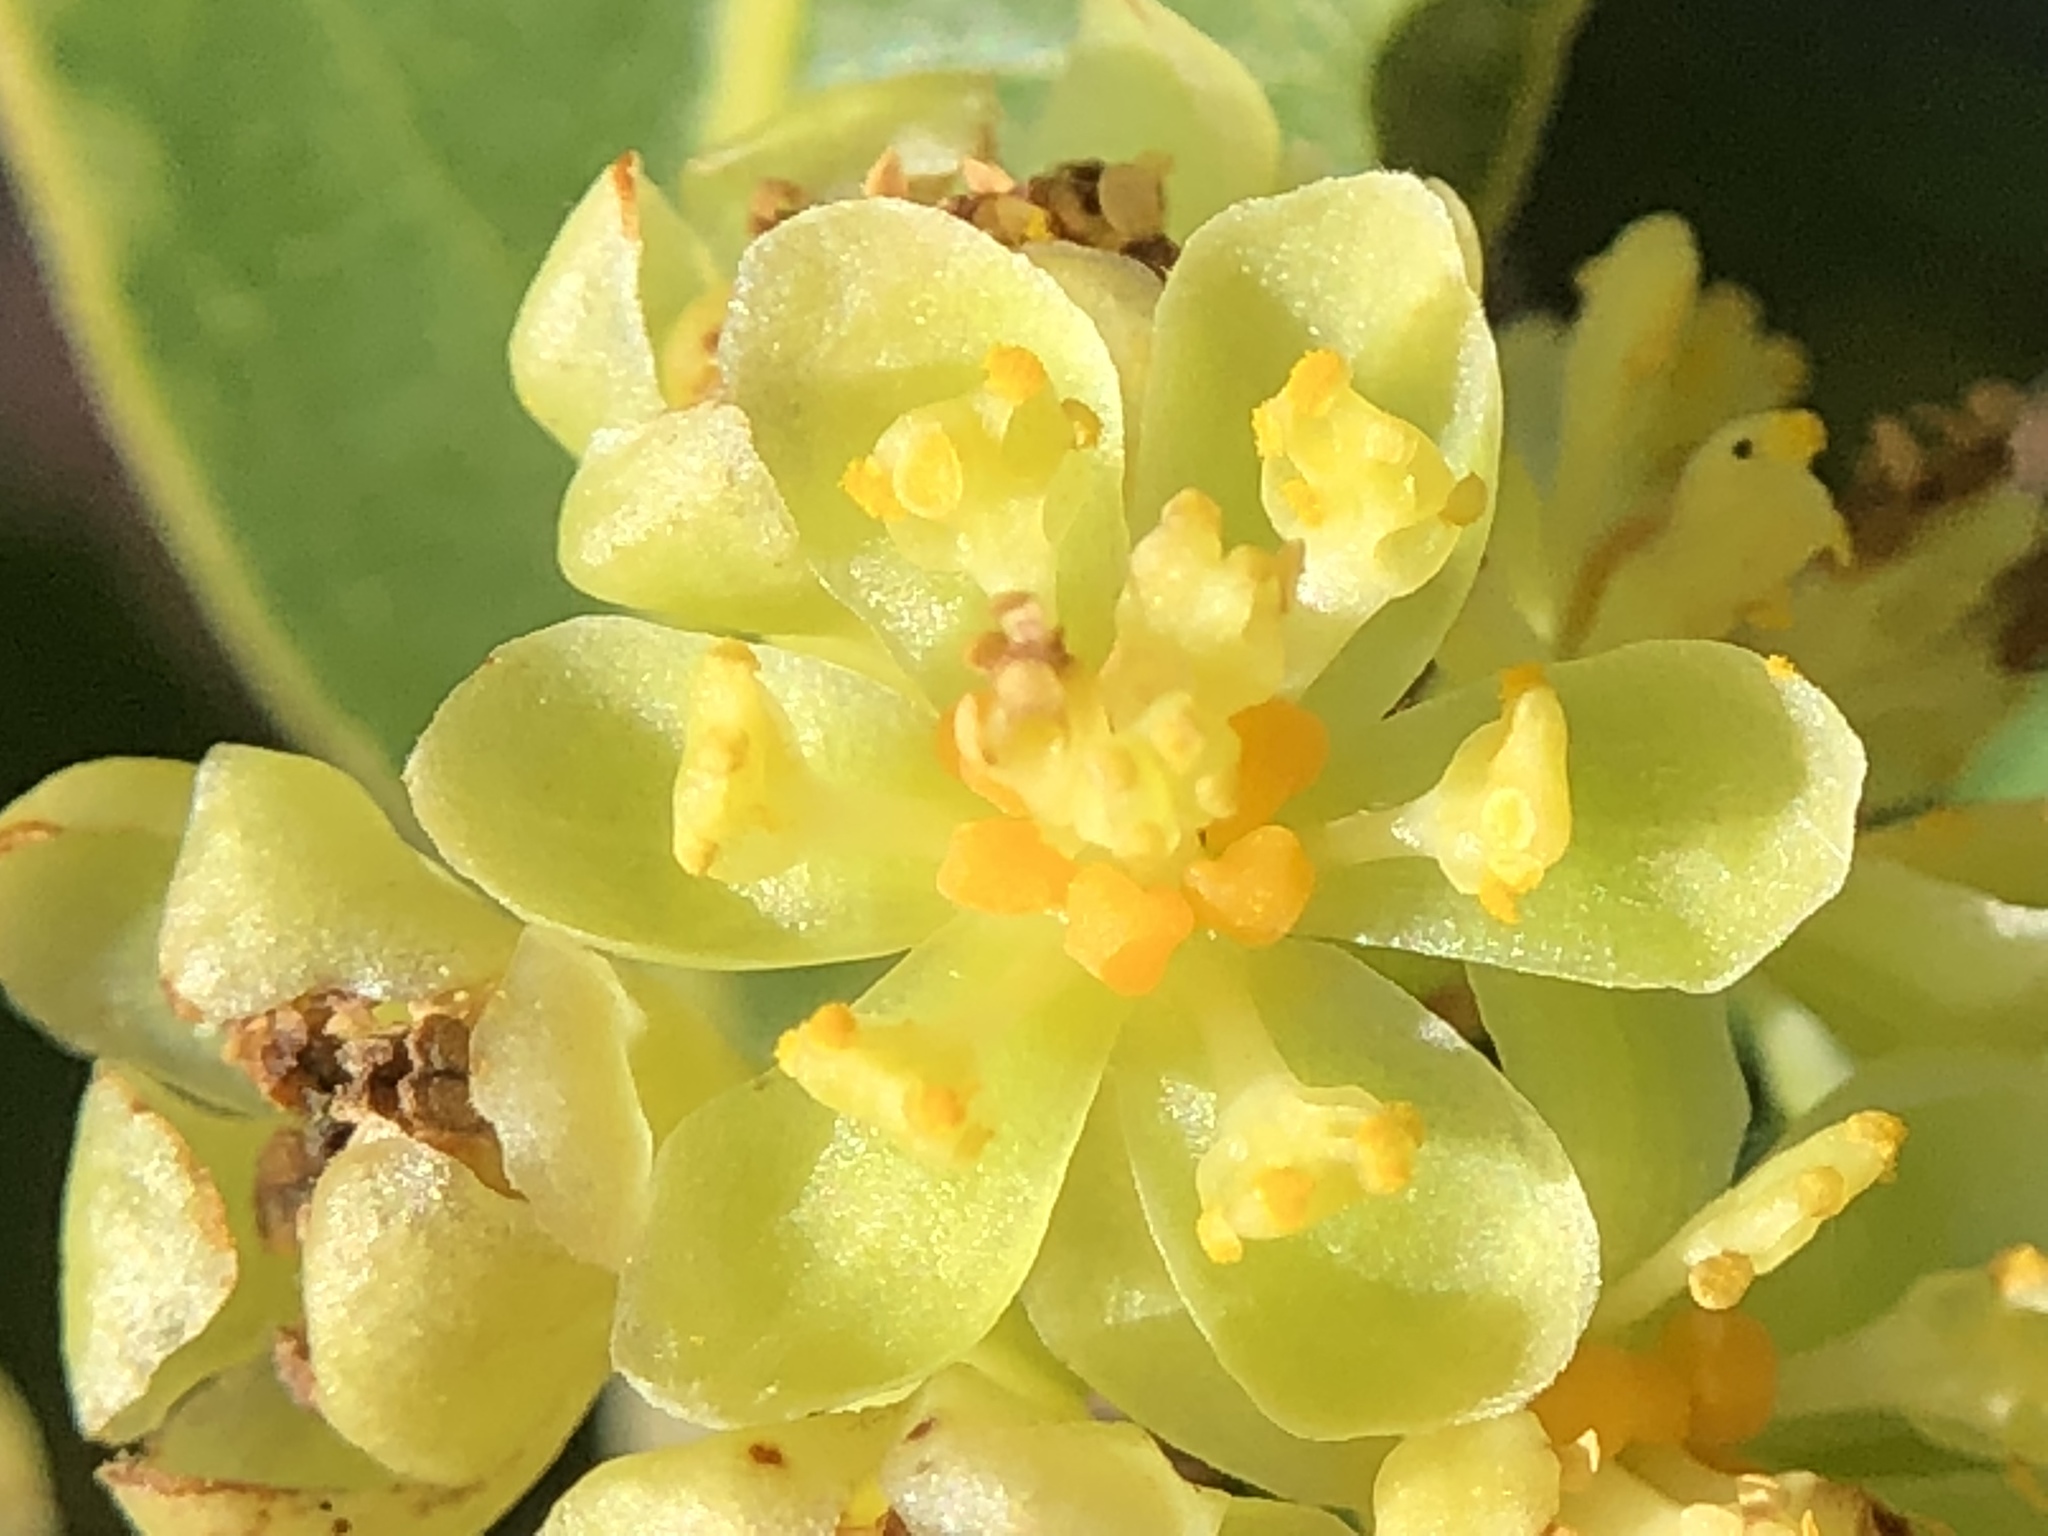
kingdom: Plantae
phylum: Tracheophyta
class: Magnoliopsida
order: Laurales
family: Lauraceae
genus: Umbellularia
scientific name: Umbellularia californica
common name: California bay
